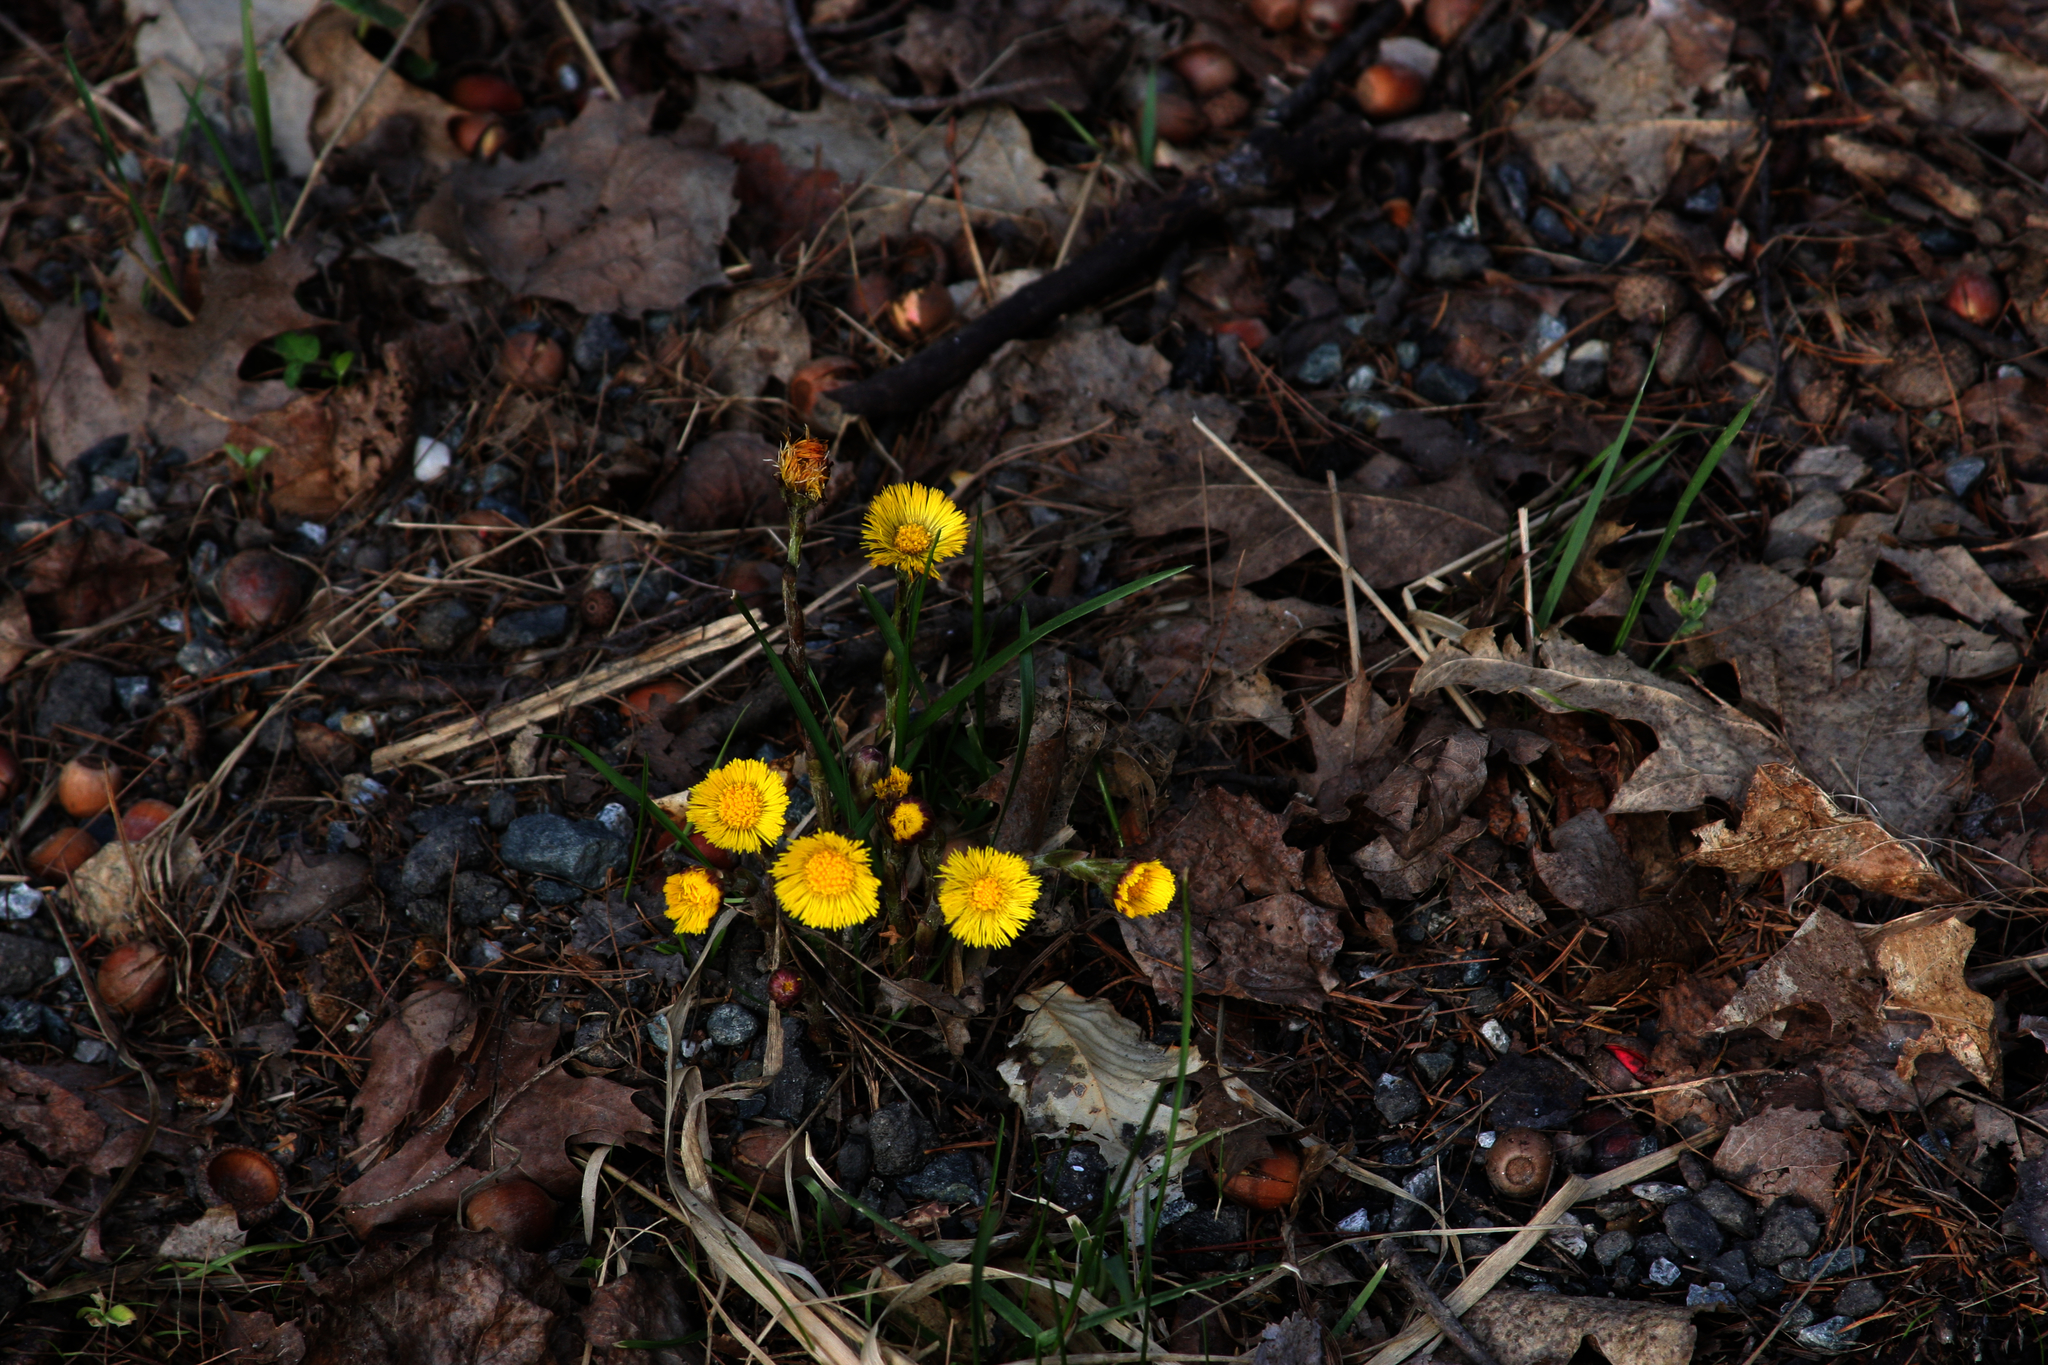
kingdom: Plantae
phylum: Tracheophyta
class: Magnoliopsida
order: Asterales
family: Asteraceae
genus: Tussilago
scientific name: Tussilago farfara
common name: Coltsfoot
